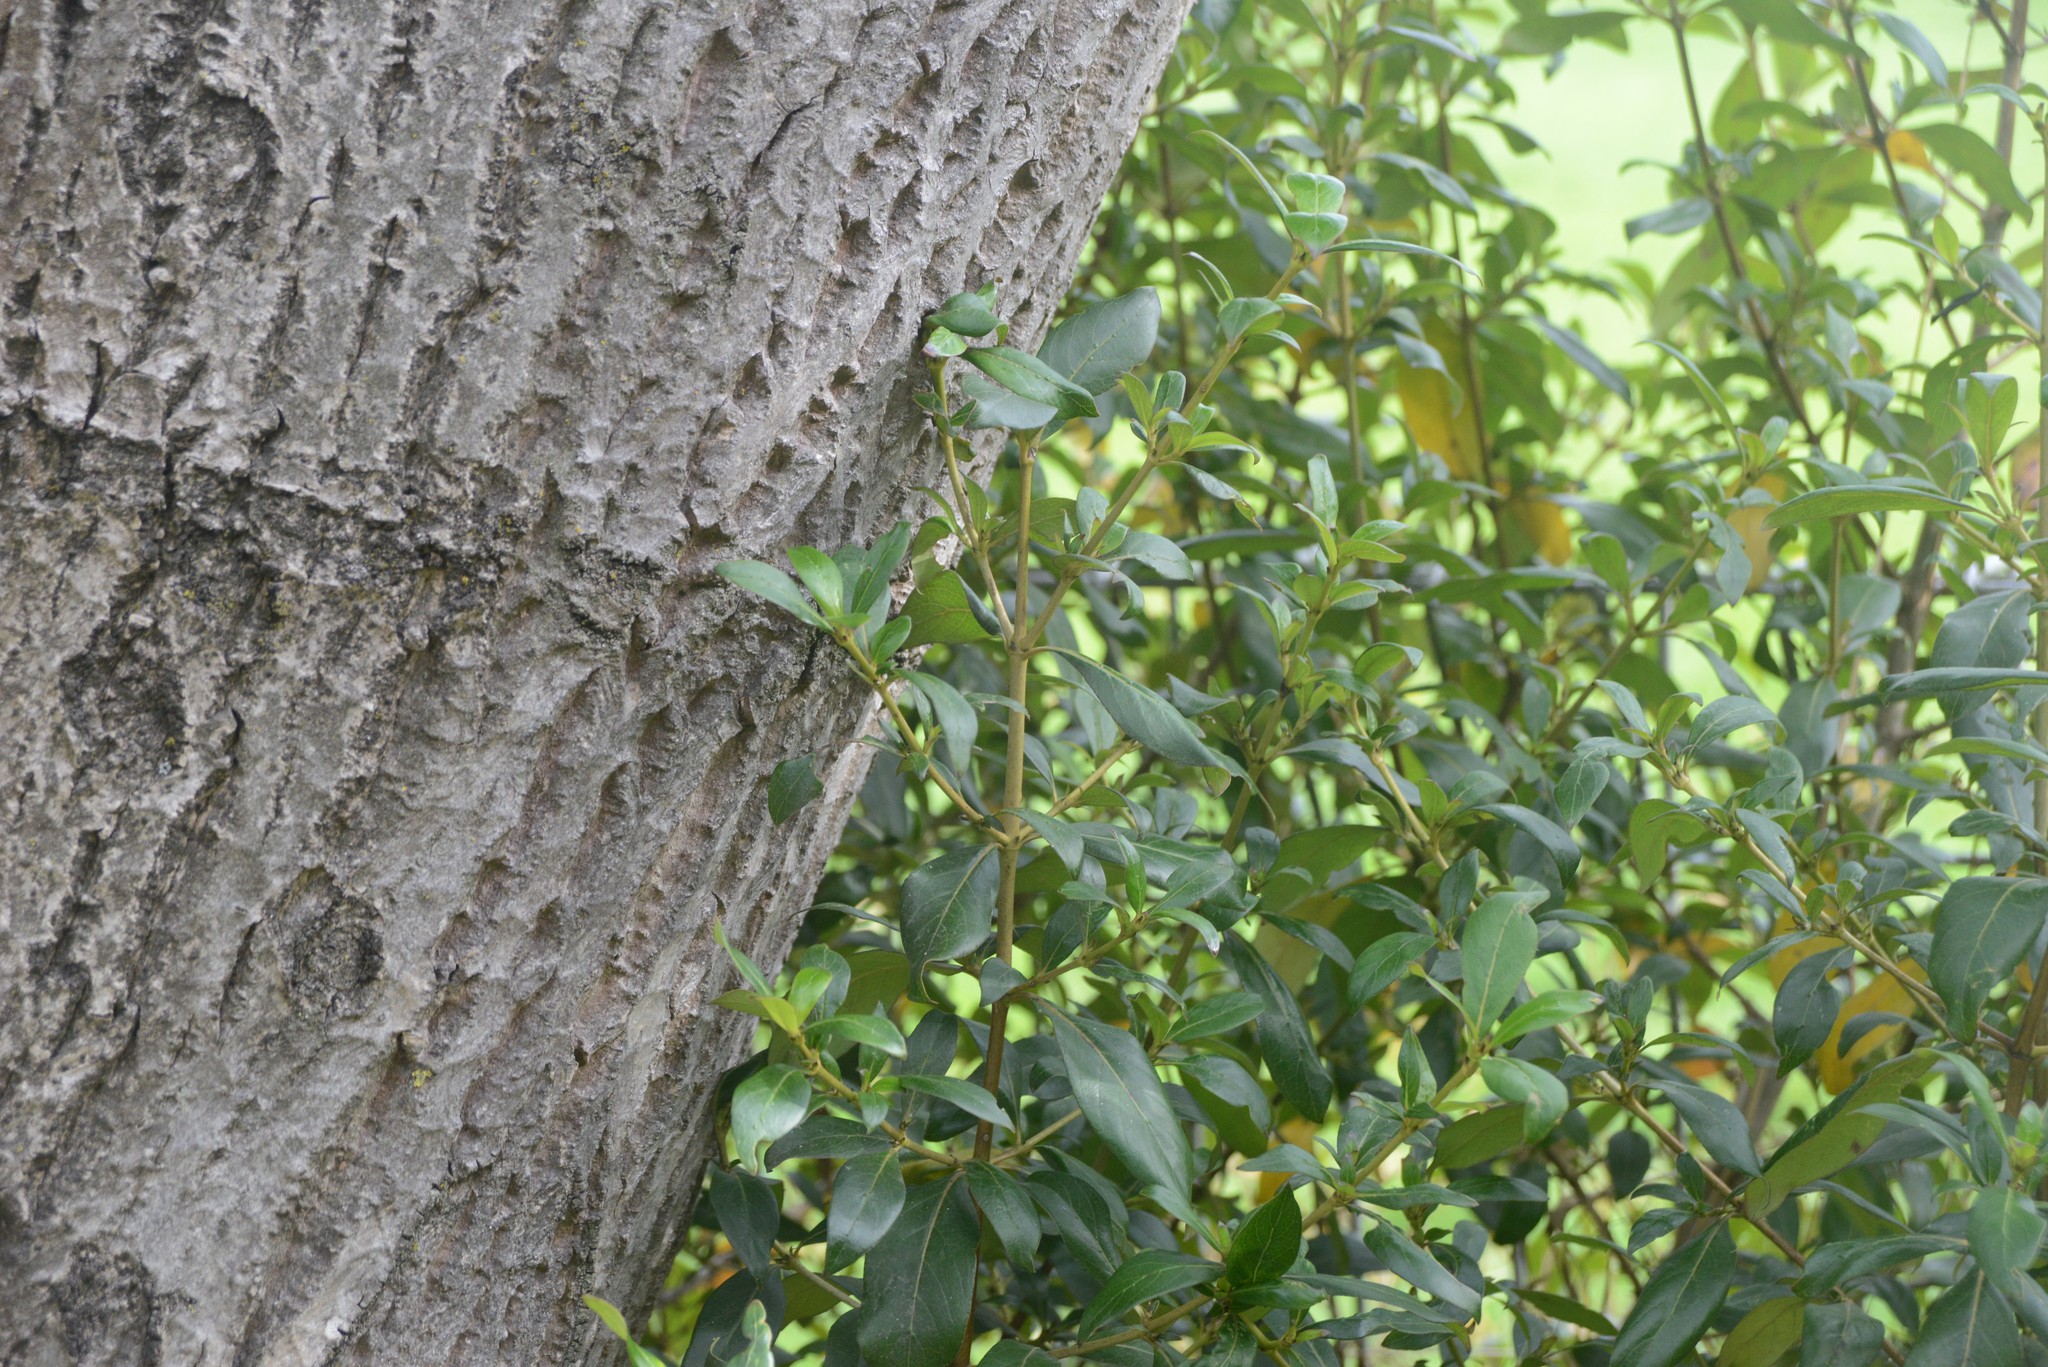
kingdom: Plantae
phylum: Tracheophyta
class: Magnoliopsida
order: Gentianales
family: Rubiaceae
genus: Coprosma
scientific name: Coprosma robusta
